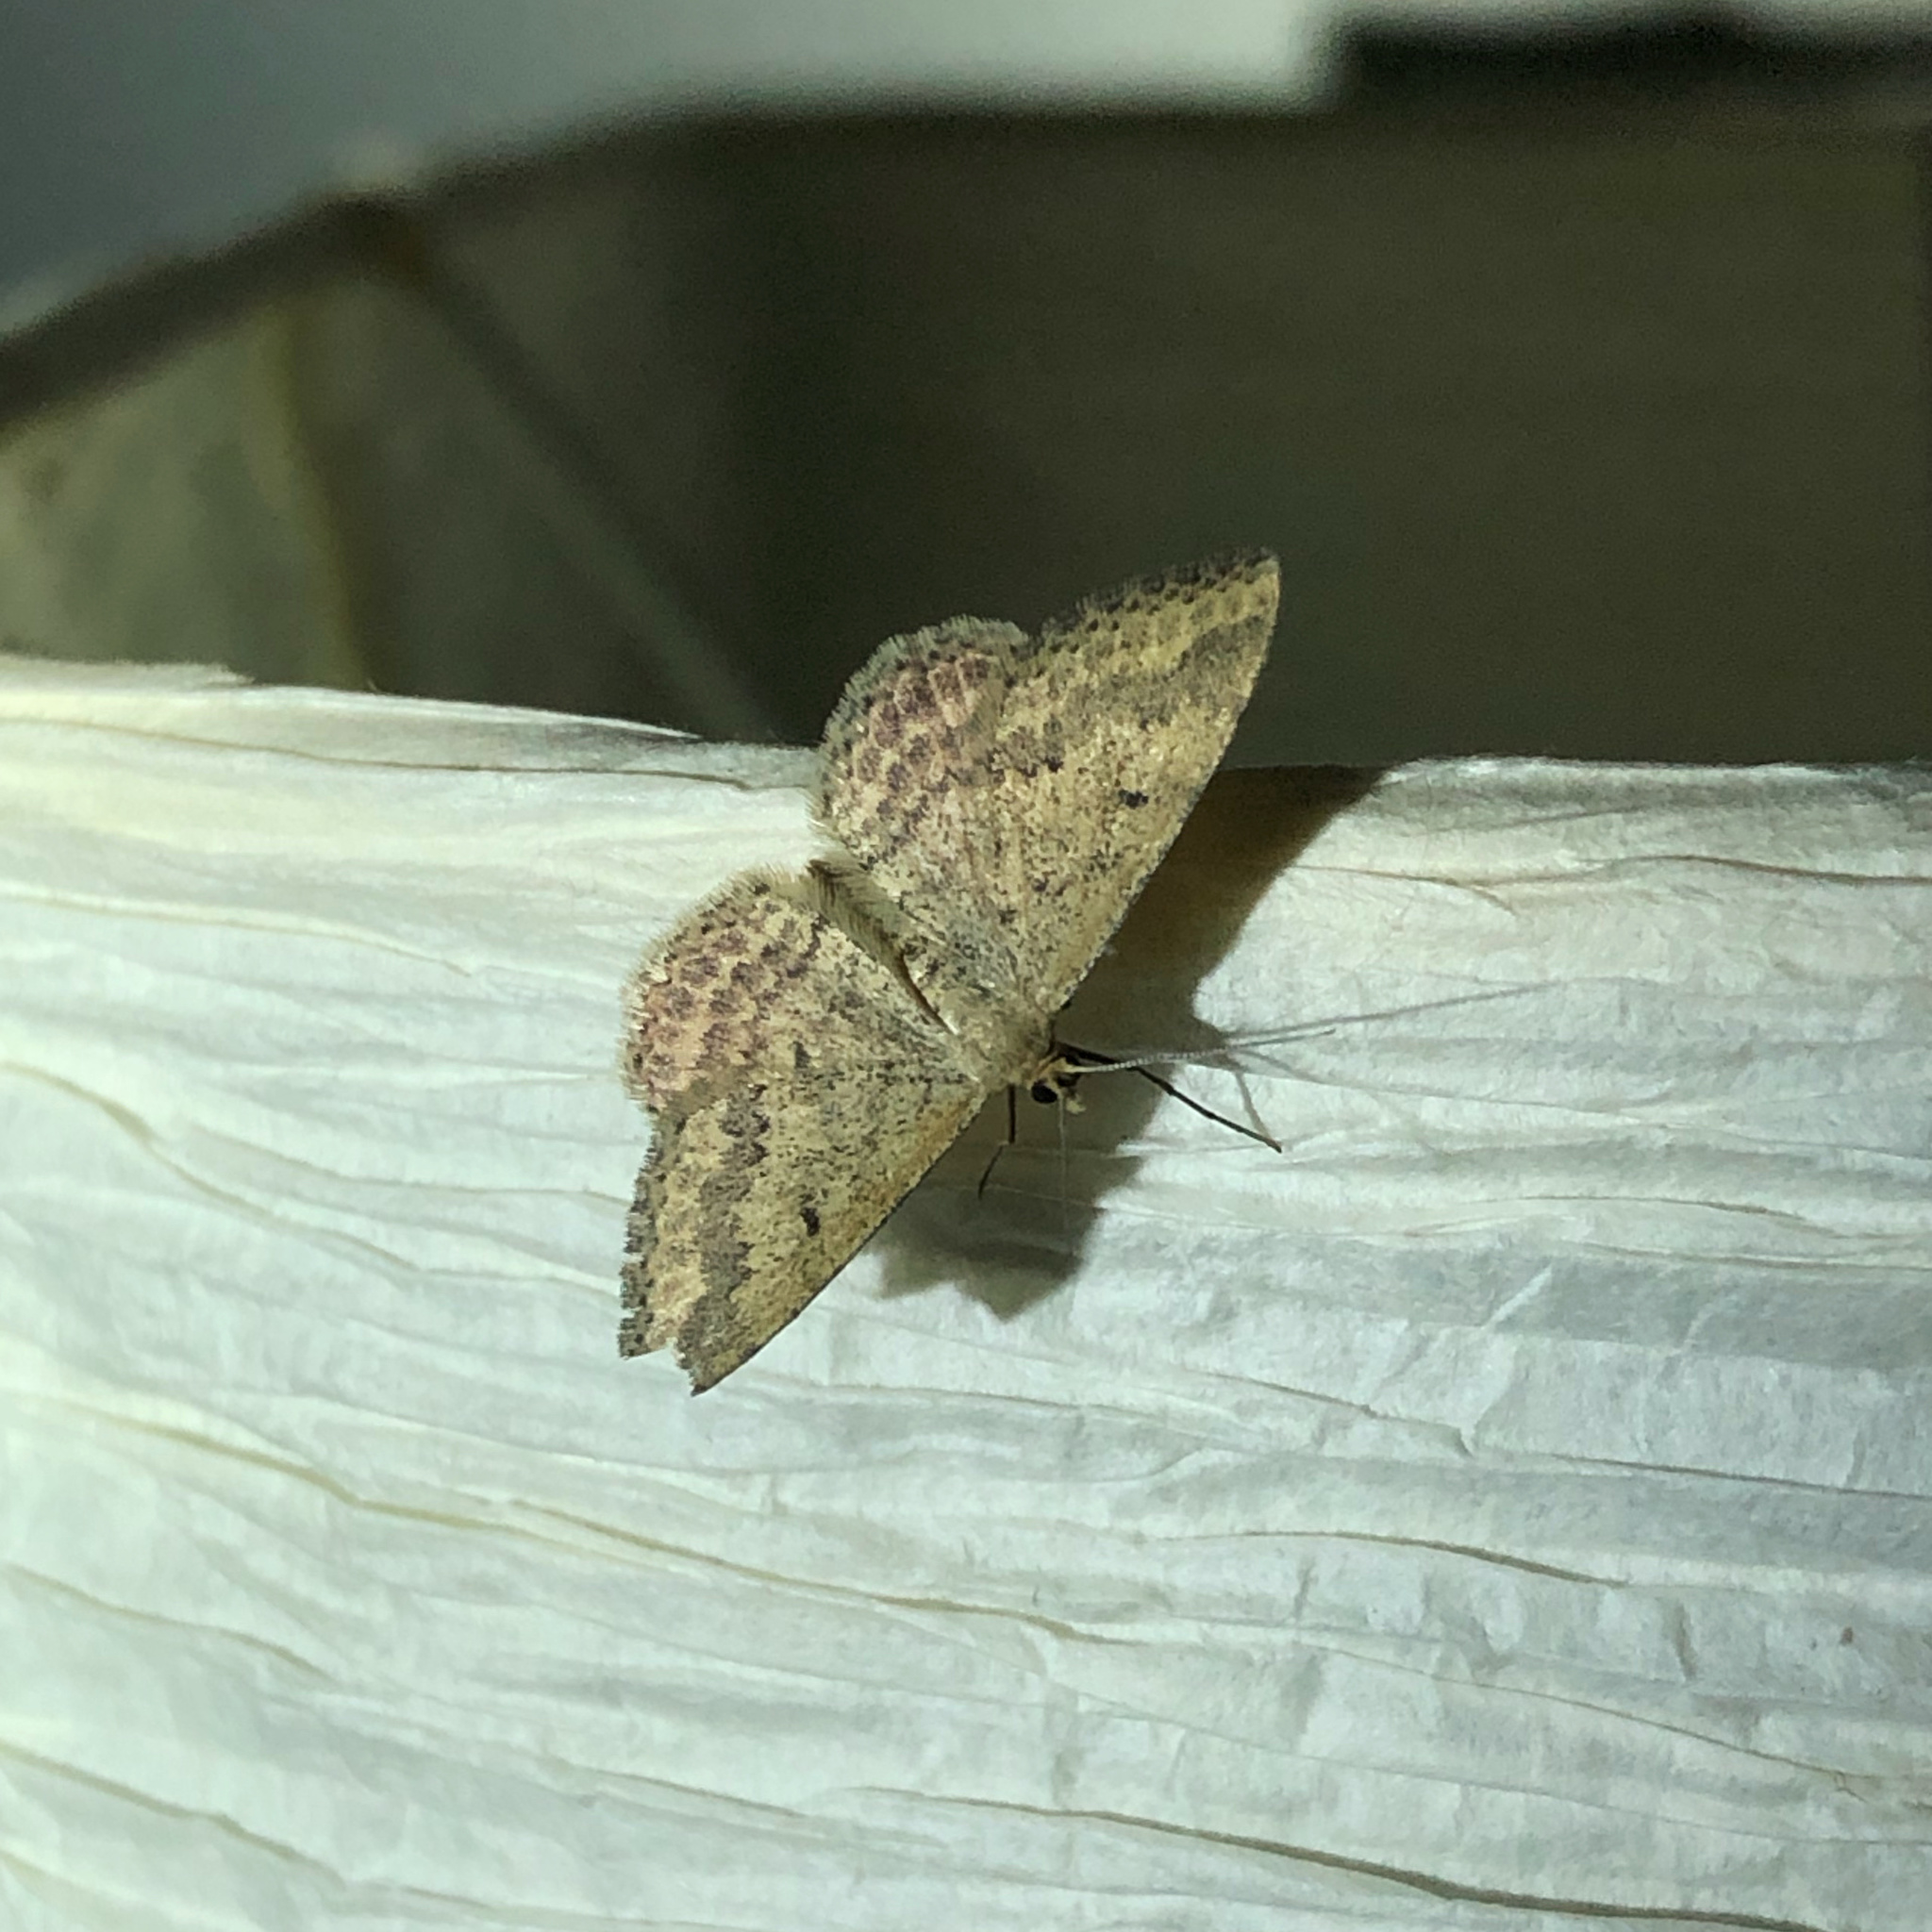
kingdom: Animalia
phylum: Arthropoda
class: Insecta
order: Lepidoptera
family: Geometridae
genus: Scopula
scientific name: Scopula rubraria
